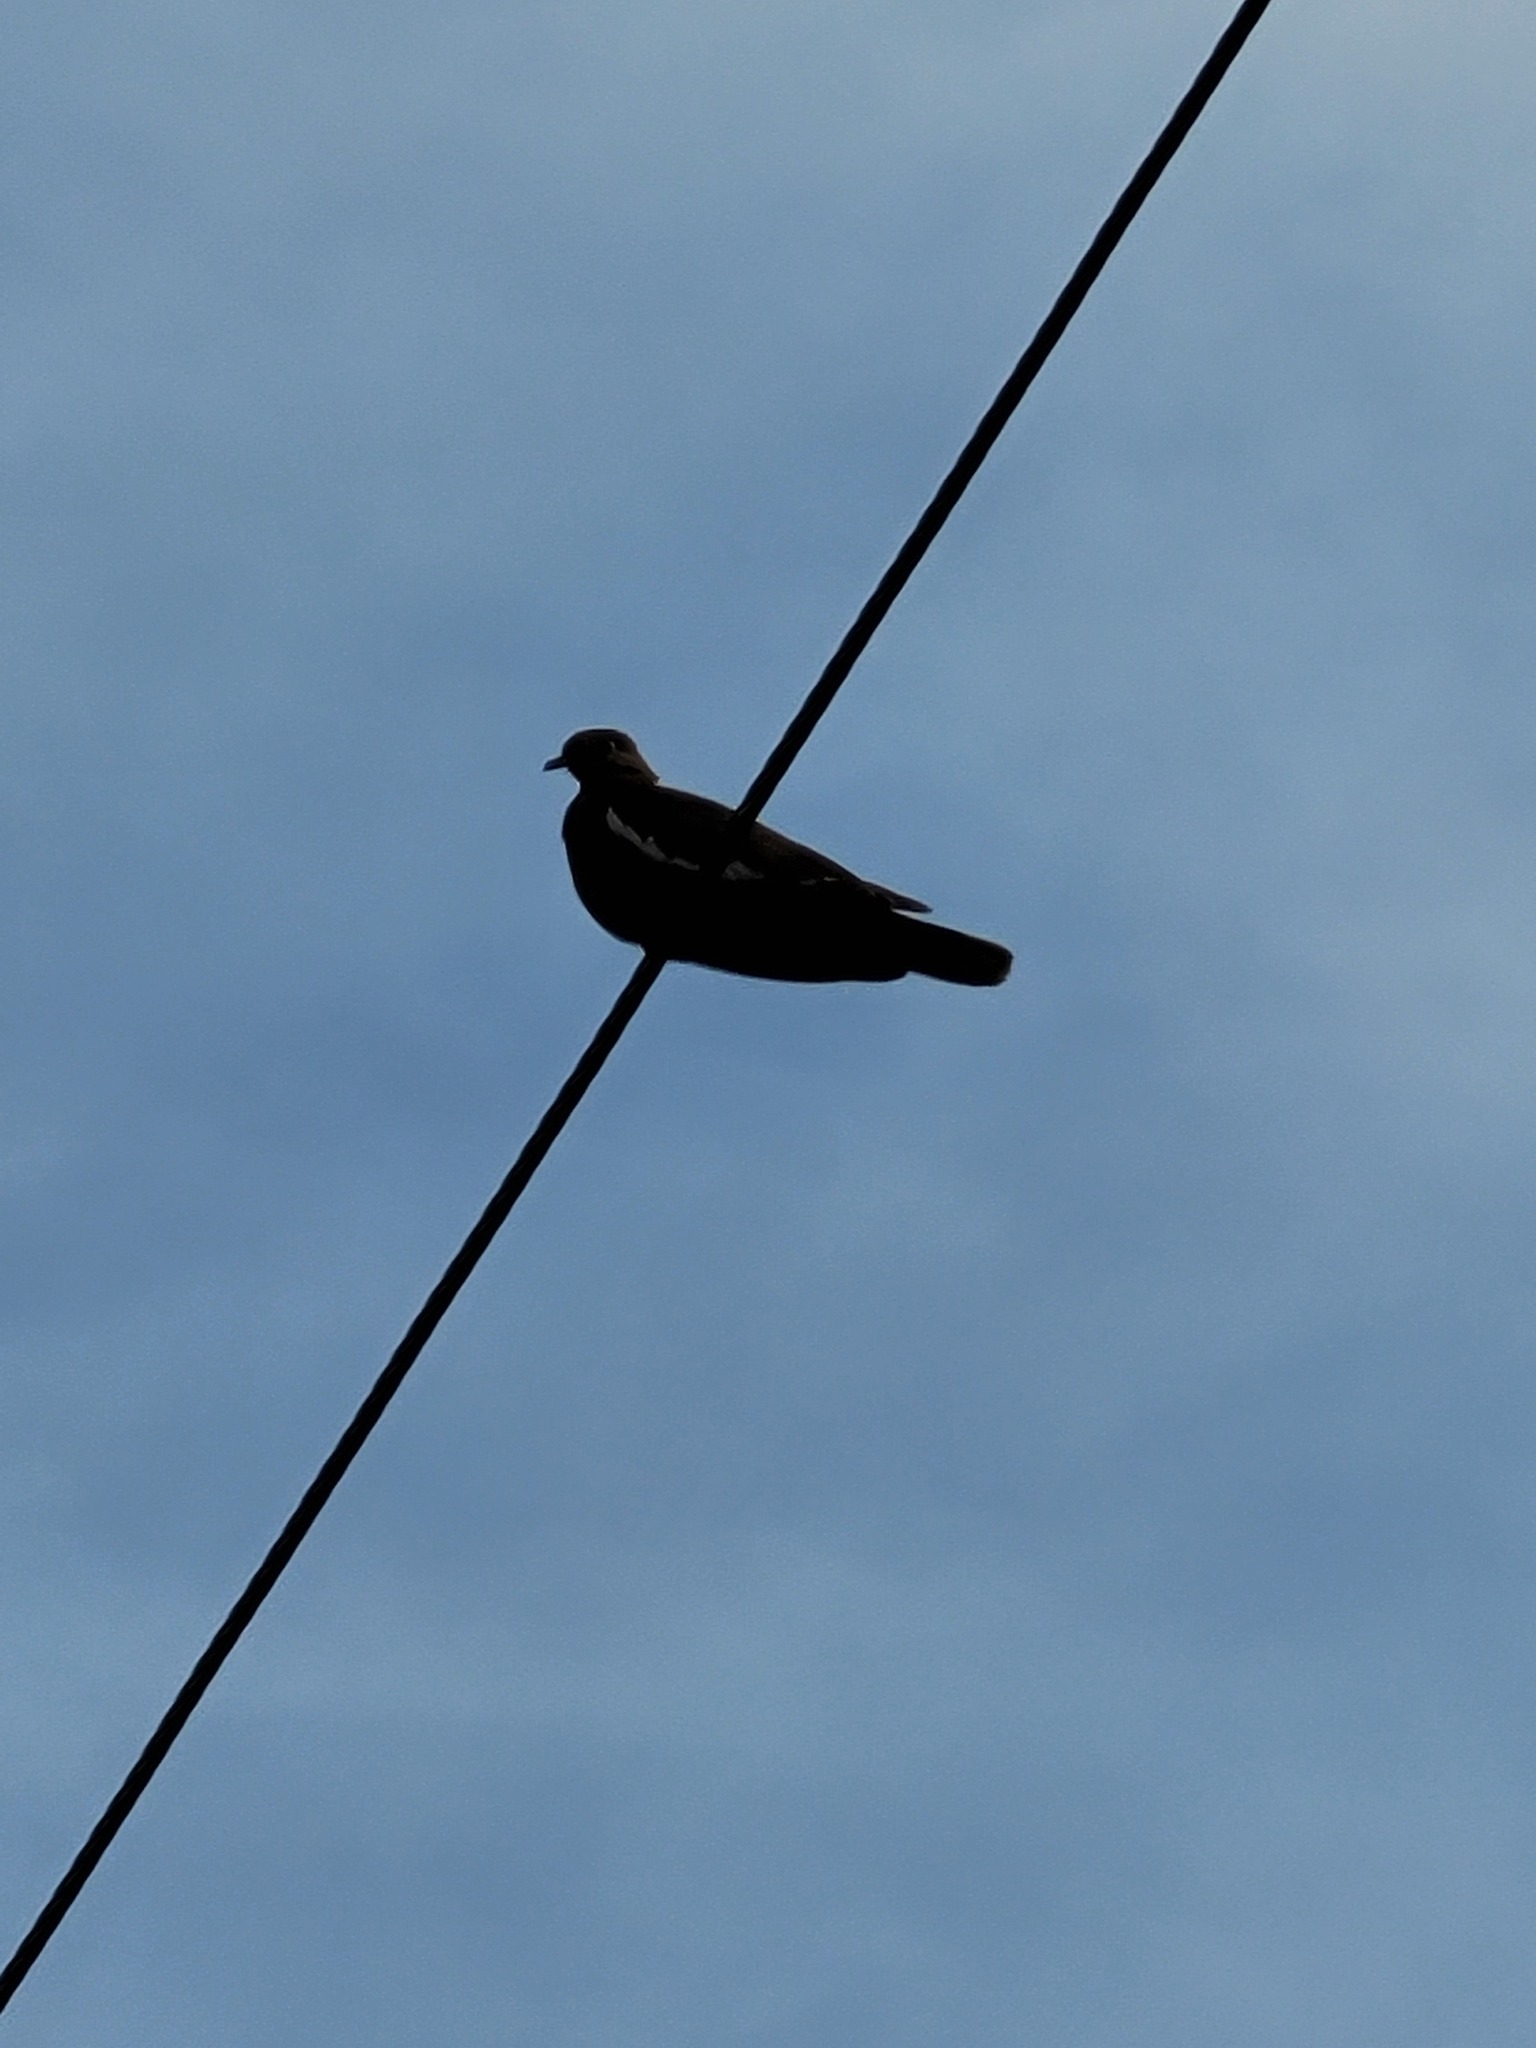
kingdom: Animalia
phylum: Chordata
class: Aves
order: Columbiformes
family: Columbidae
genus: Zenaida
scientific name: Zenaida asiatica
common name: White-winged dove
